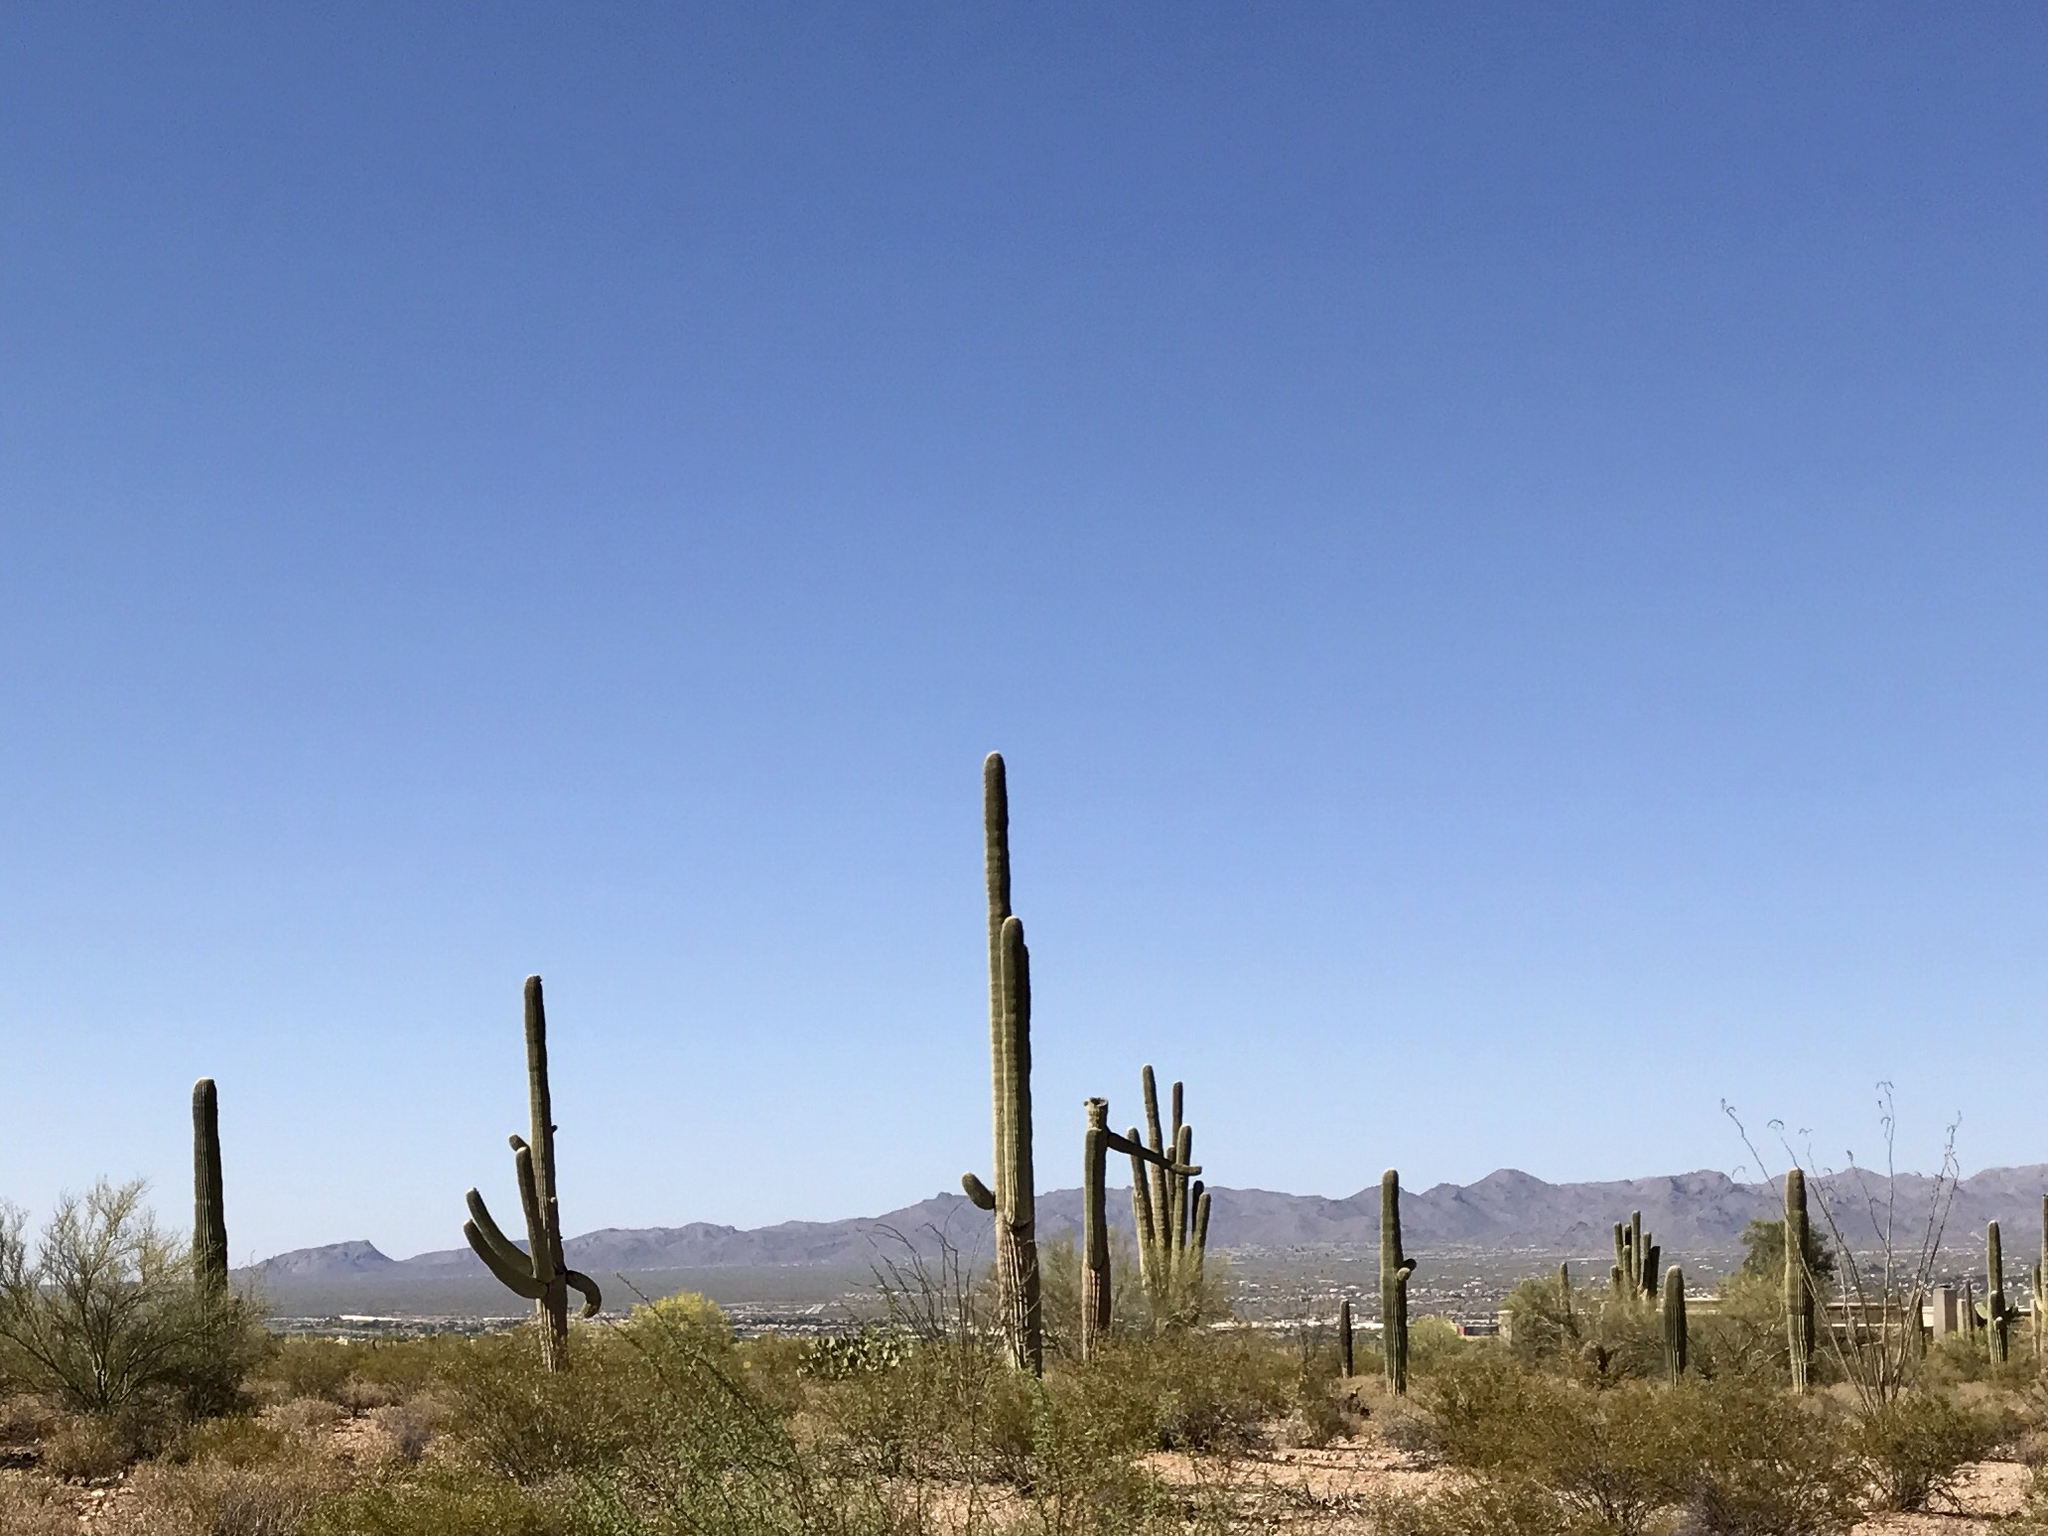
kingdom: Plantae
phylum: Tracheophyta
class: Magnoliopsida
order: Caryophyllales
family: Cactaceae
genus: Carnegiea
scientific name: Carnegiea gigantea
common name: Saguaro
